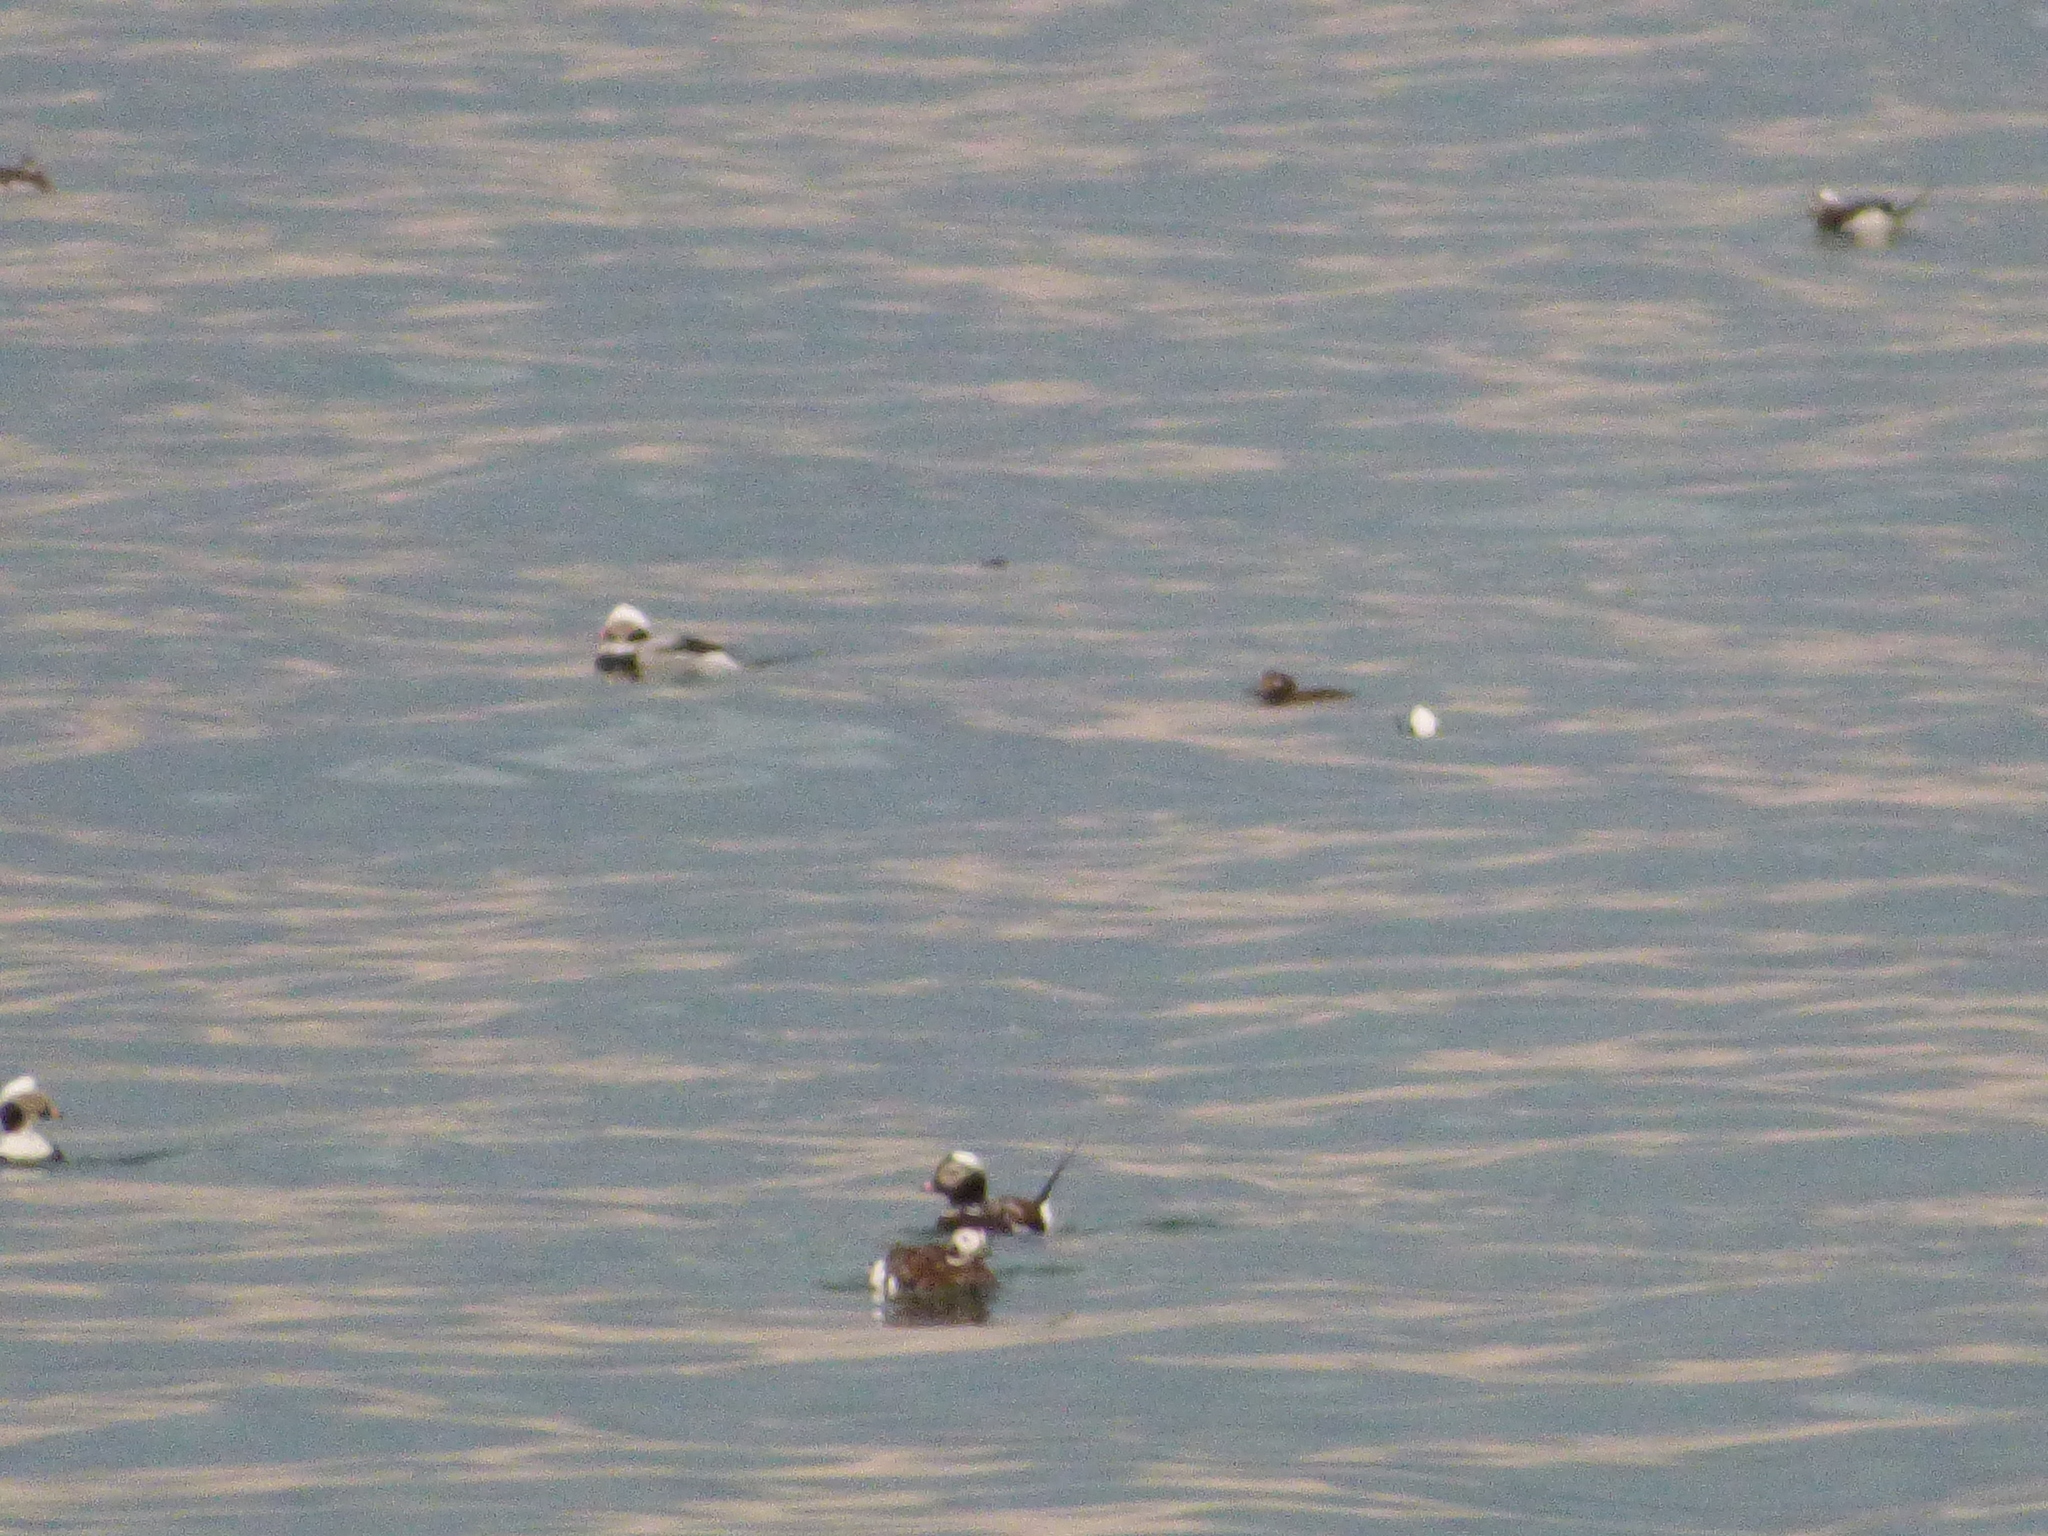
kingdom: Animalia
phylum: Chordata
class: Aves
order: Anseriformes
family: Anatidae
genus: Clangula
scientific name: Clangula hyemalis
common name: Long-tailed duck
